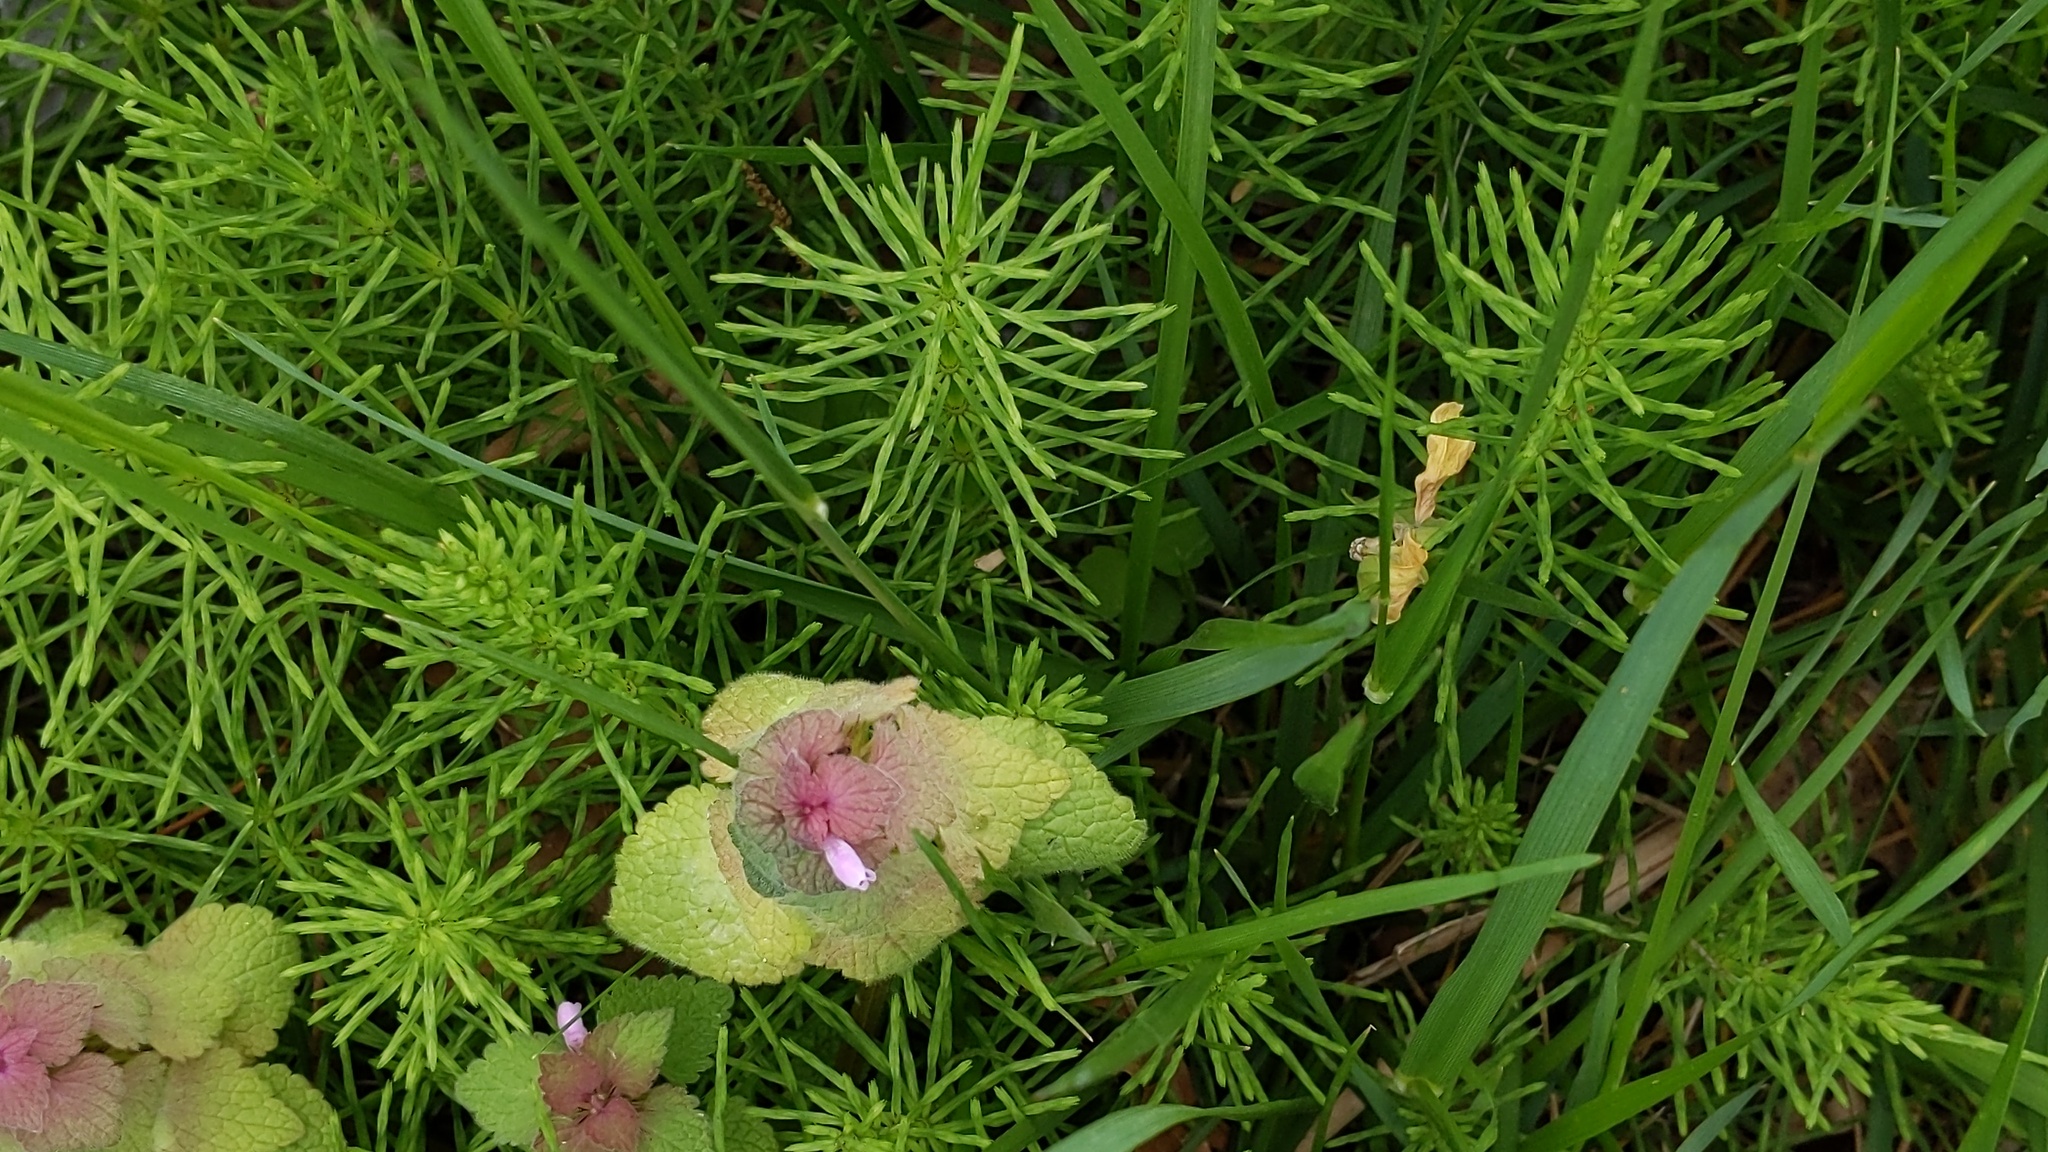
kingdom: Plantae
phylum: Tracheophyta
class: Magnoliopsida
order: Lamiales
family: Lamiaceae
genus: Lamium
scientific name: Lamium purpureum
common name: Red dead-nettle
